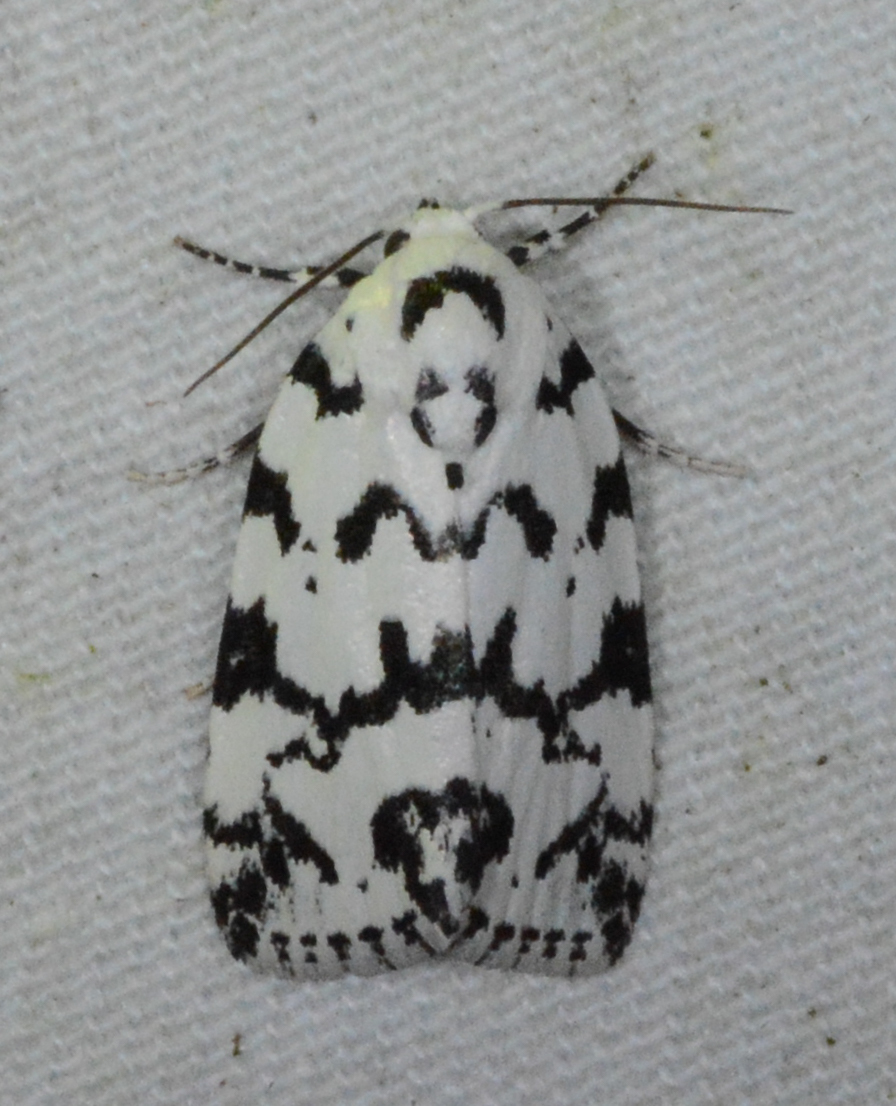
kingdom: Animalia
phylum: Arthropoda
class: Insecta
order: Lepidoptera
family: Noctuidae
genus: Polygrammate
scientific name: Polygrammate hebraeicum
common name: Hebrew moth
